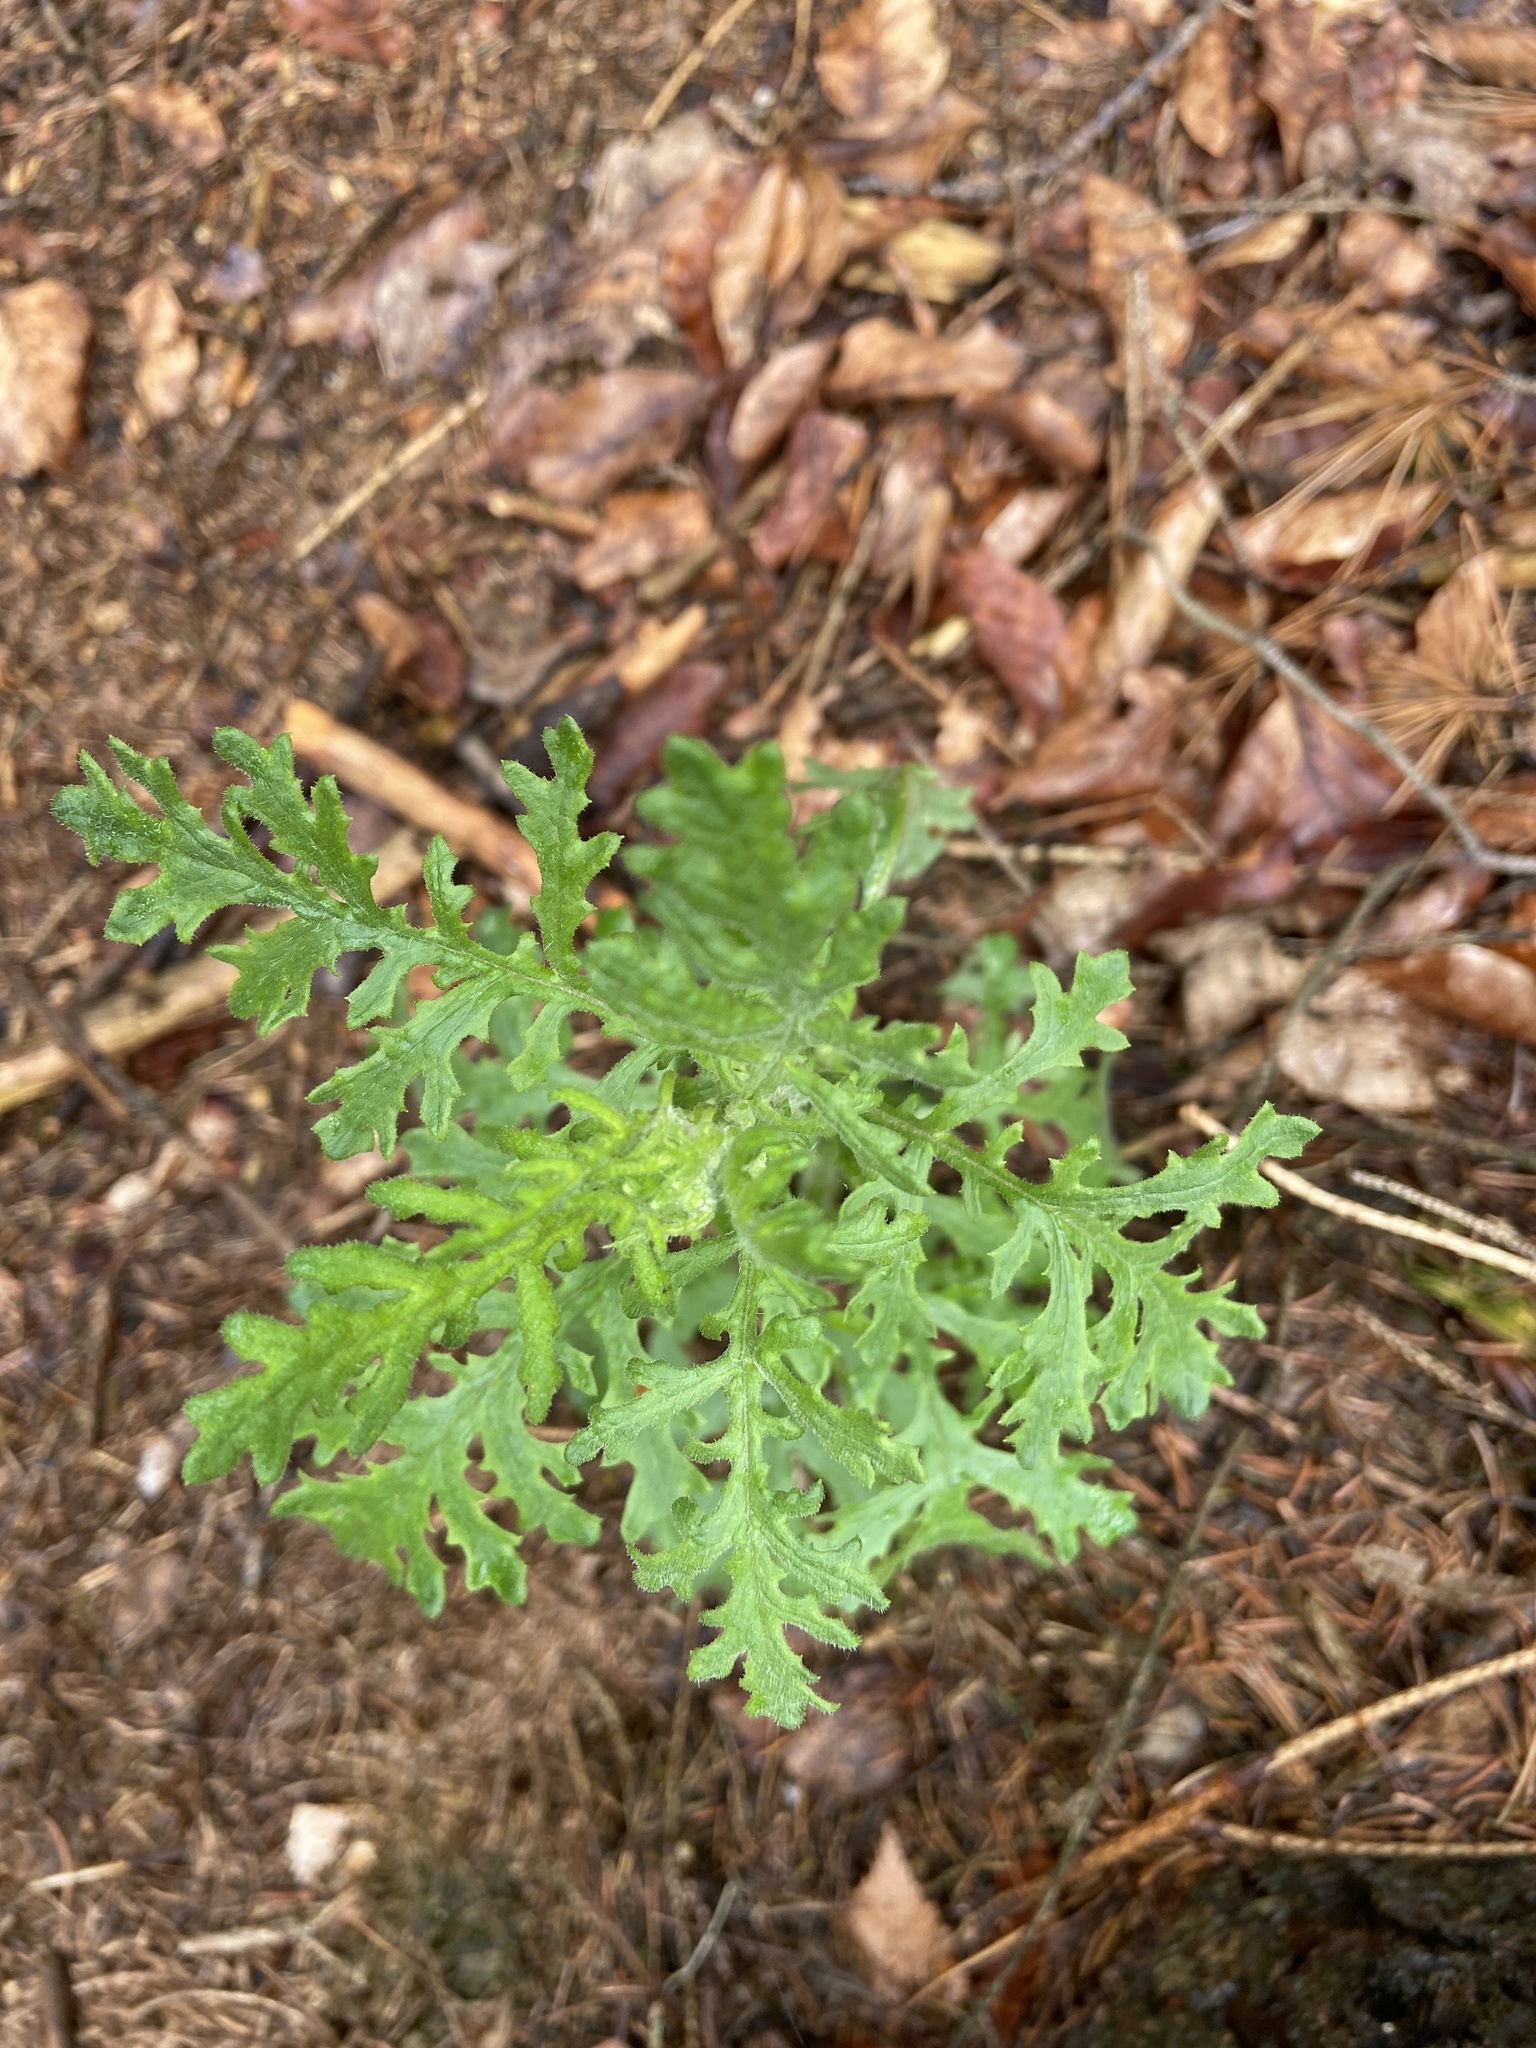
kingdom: Plantae
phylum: Tracheophyta
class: Magnoliopsida
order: Asterales
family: Asteraceae
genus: Senecio
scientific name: Senecio viscosus
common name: Sticky groundsel
